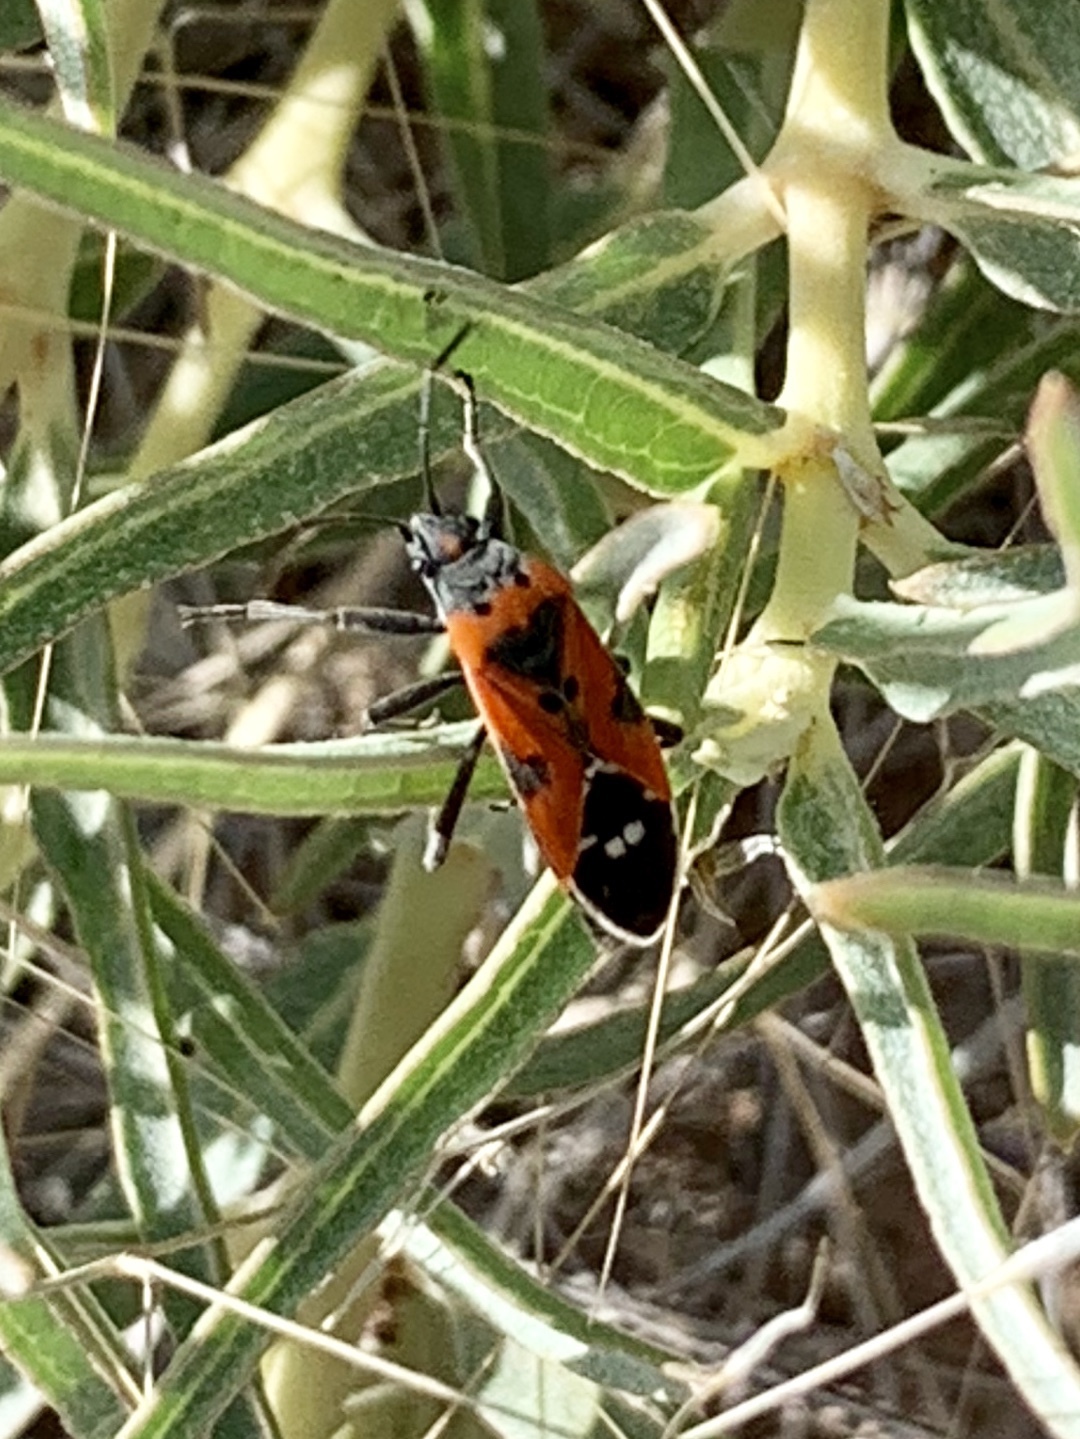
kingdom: Animalia
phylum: Arthropoda
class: Insecta
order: Hemiptera
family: Lygaeidae
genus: Lygaeus
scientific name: Lygaeus reclivatus
